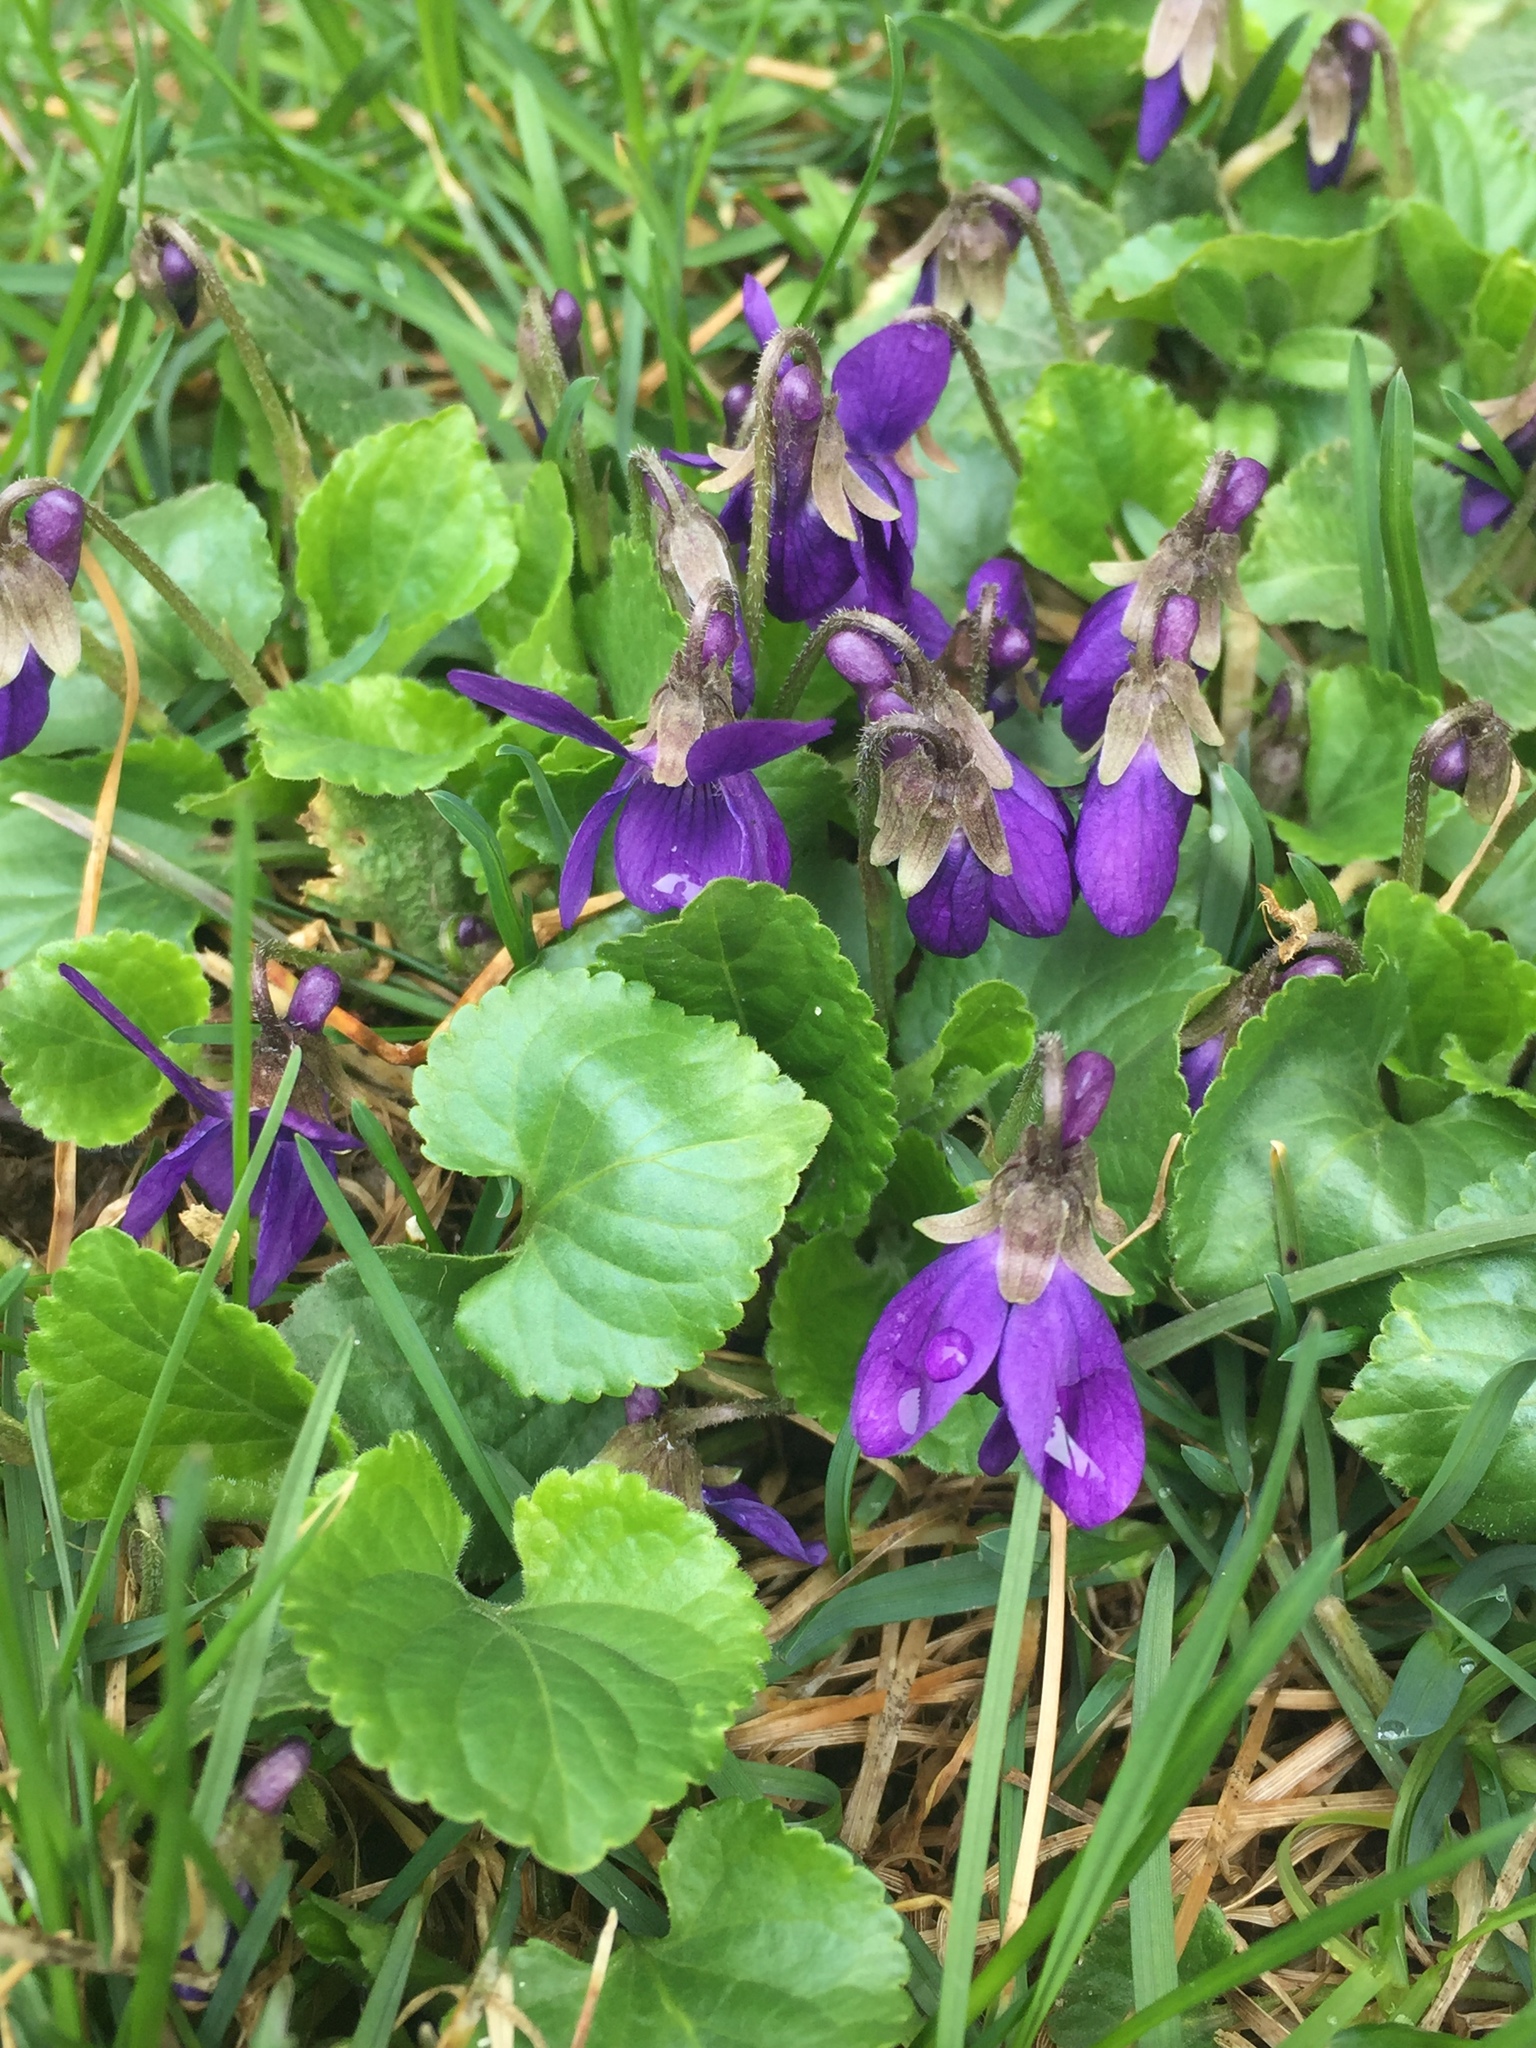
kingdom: Plantae
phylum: Tracheophyta
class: Magnoliopsida
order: Malpighiales
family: Violaceae
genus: Viola
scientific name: Viola odorata
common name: Sweet violet
